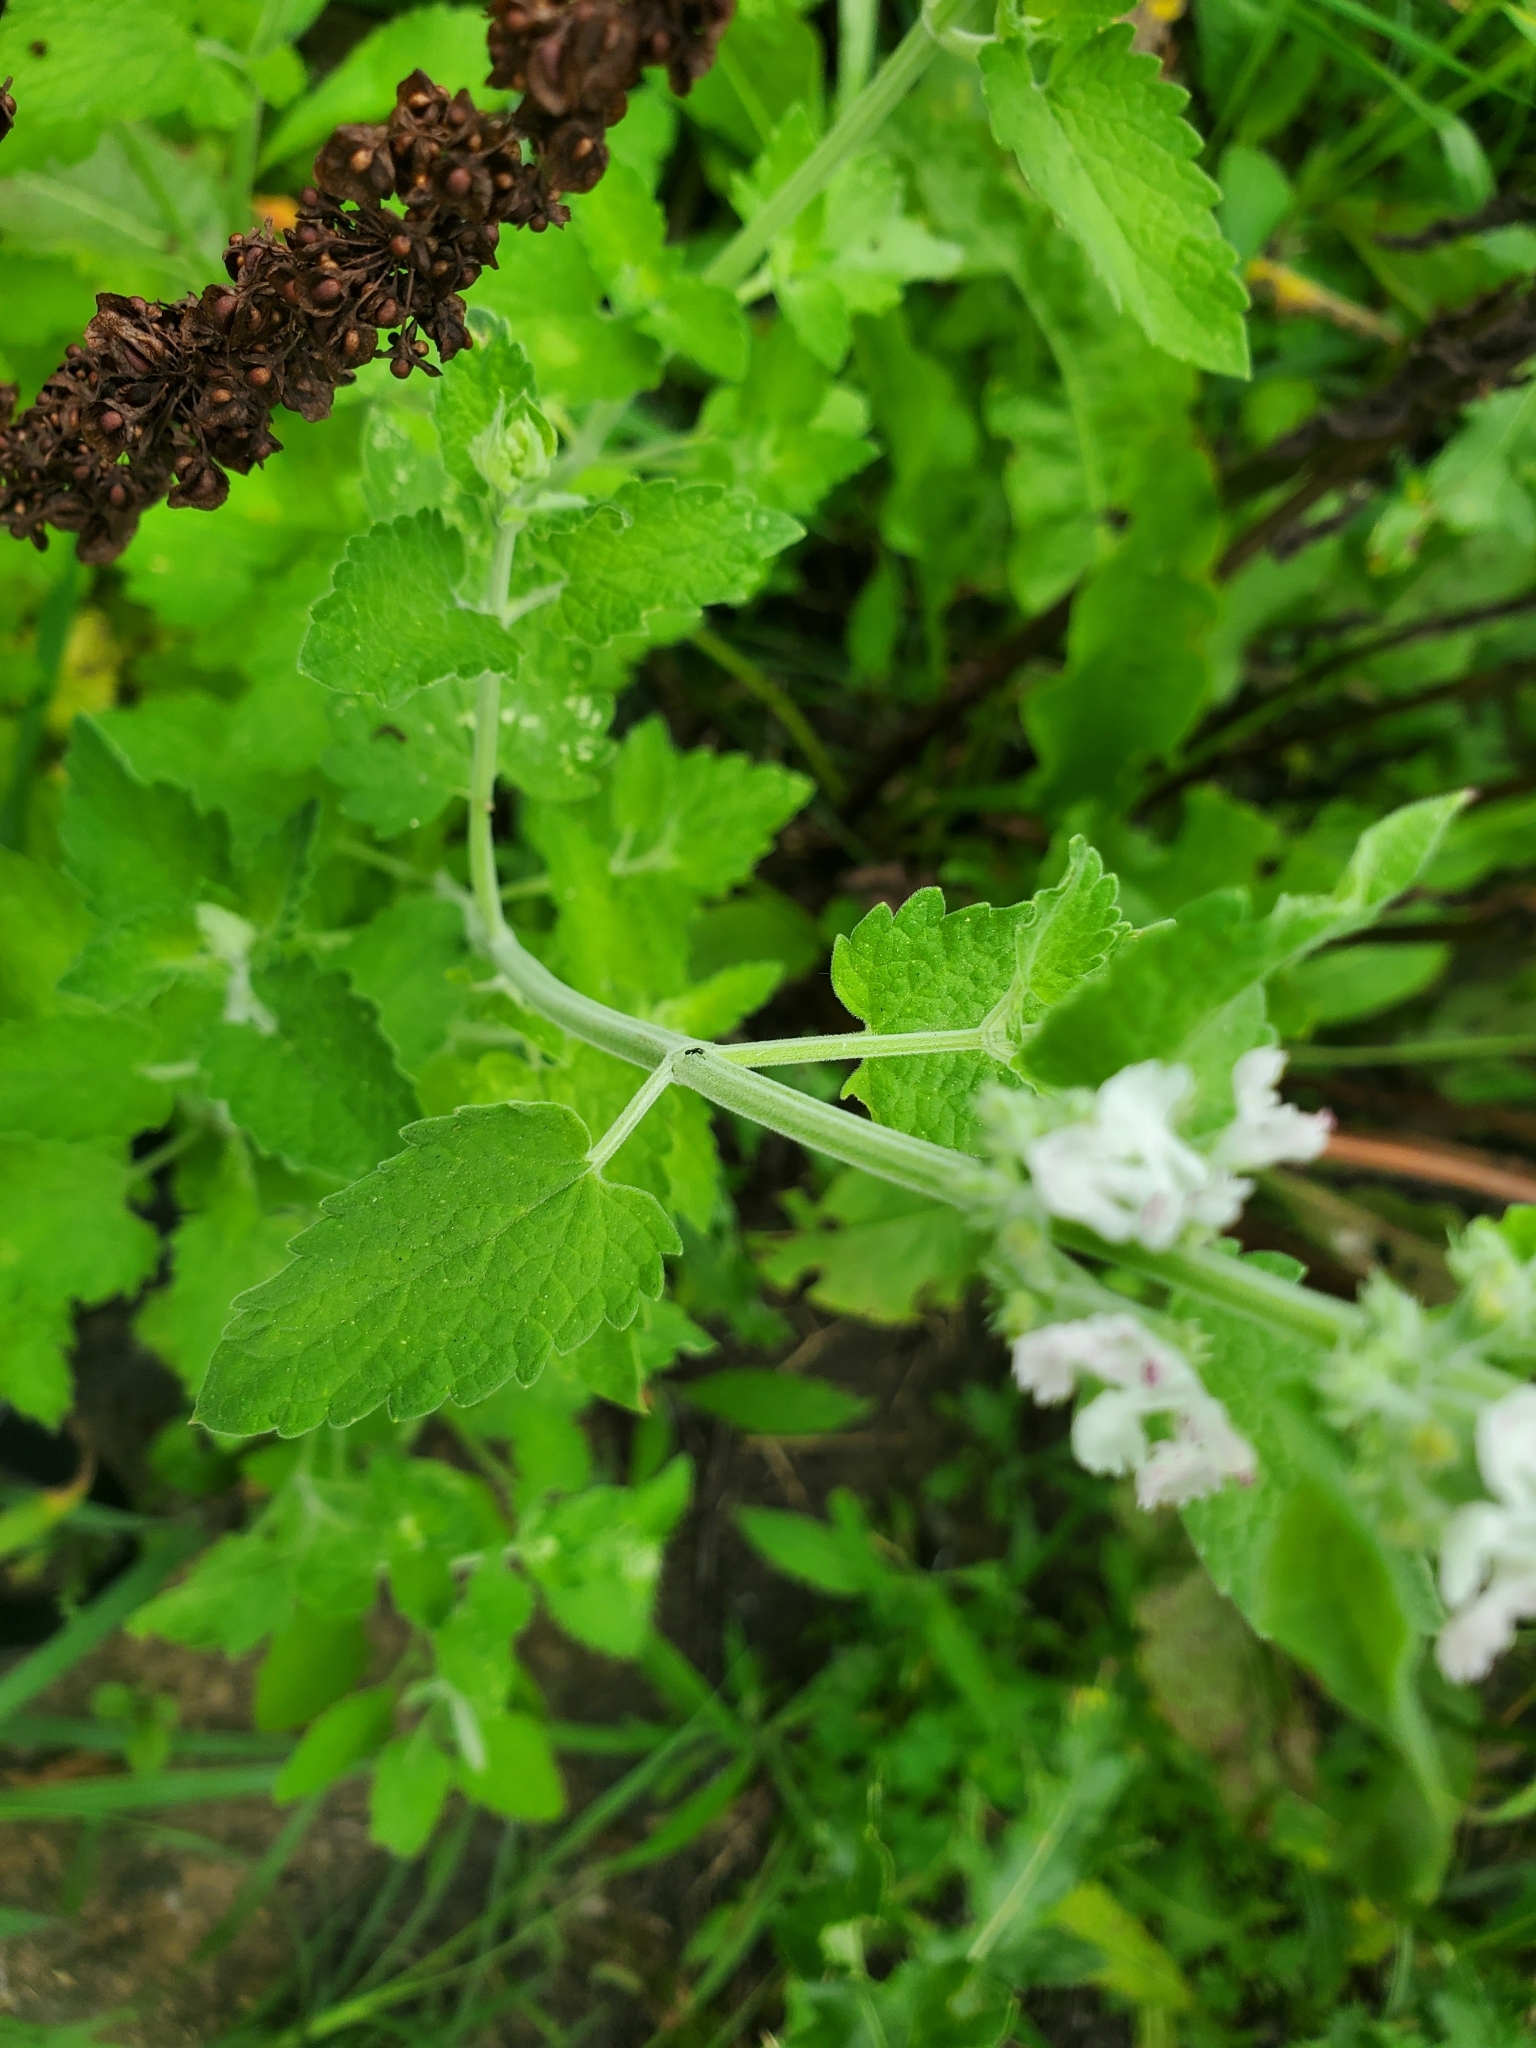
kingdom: Plantae
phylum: Tracheophyta
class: Magnoliopsida
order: Lamiales
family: Lamiaceae
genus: Nepeta
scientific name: Nepeta cataria
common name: Catnip
